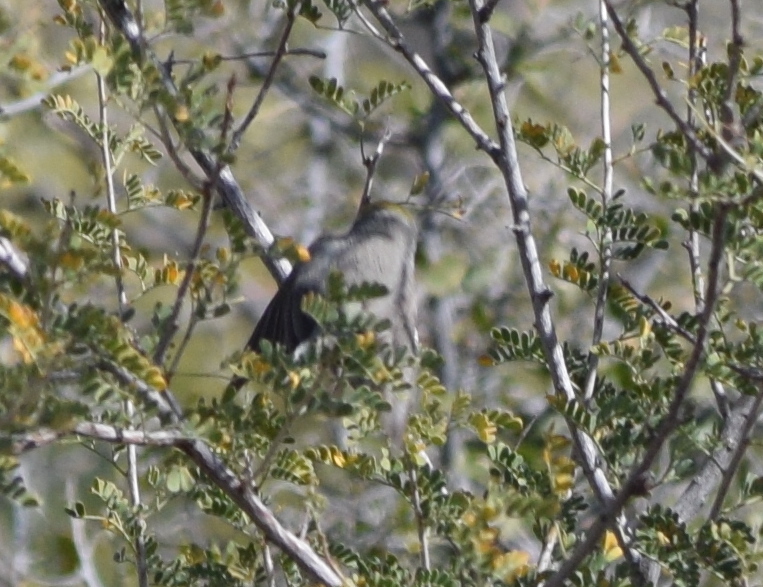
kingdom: Animalia
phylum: Chordata
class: Aves
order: Passeriformes
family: Remizidae
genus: Auriparus
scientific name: Auriparus flaviceps
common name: Verdin
